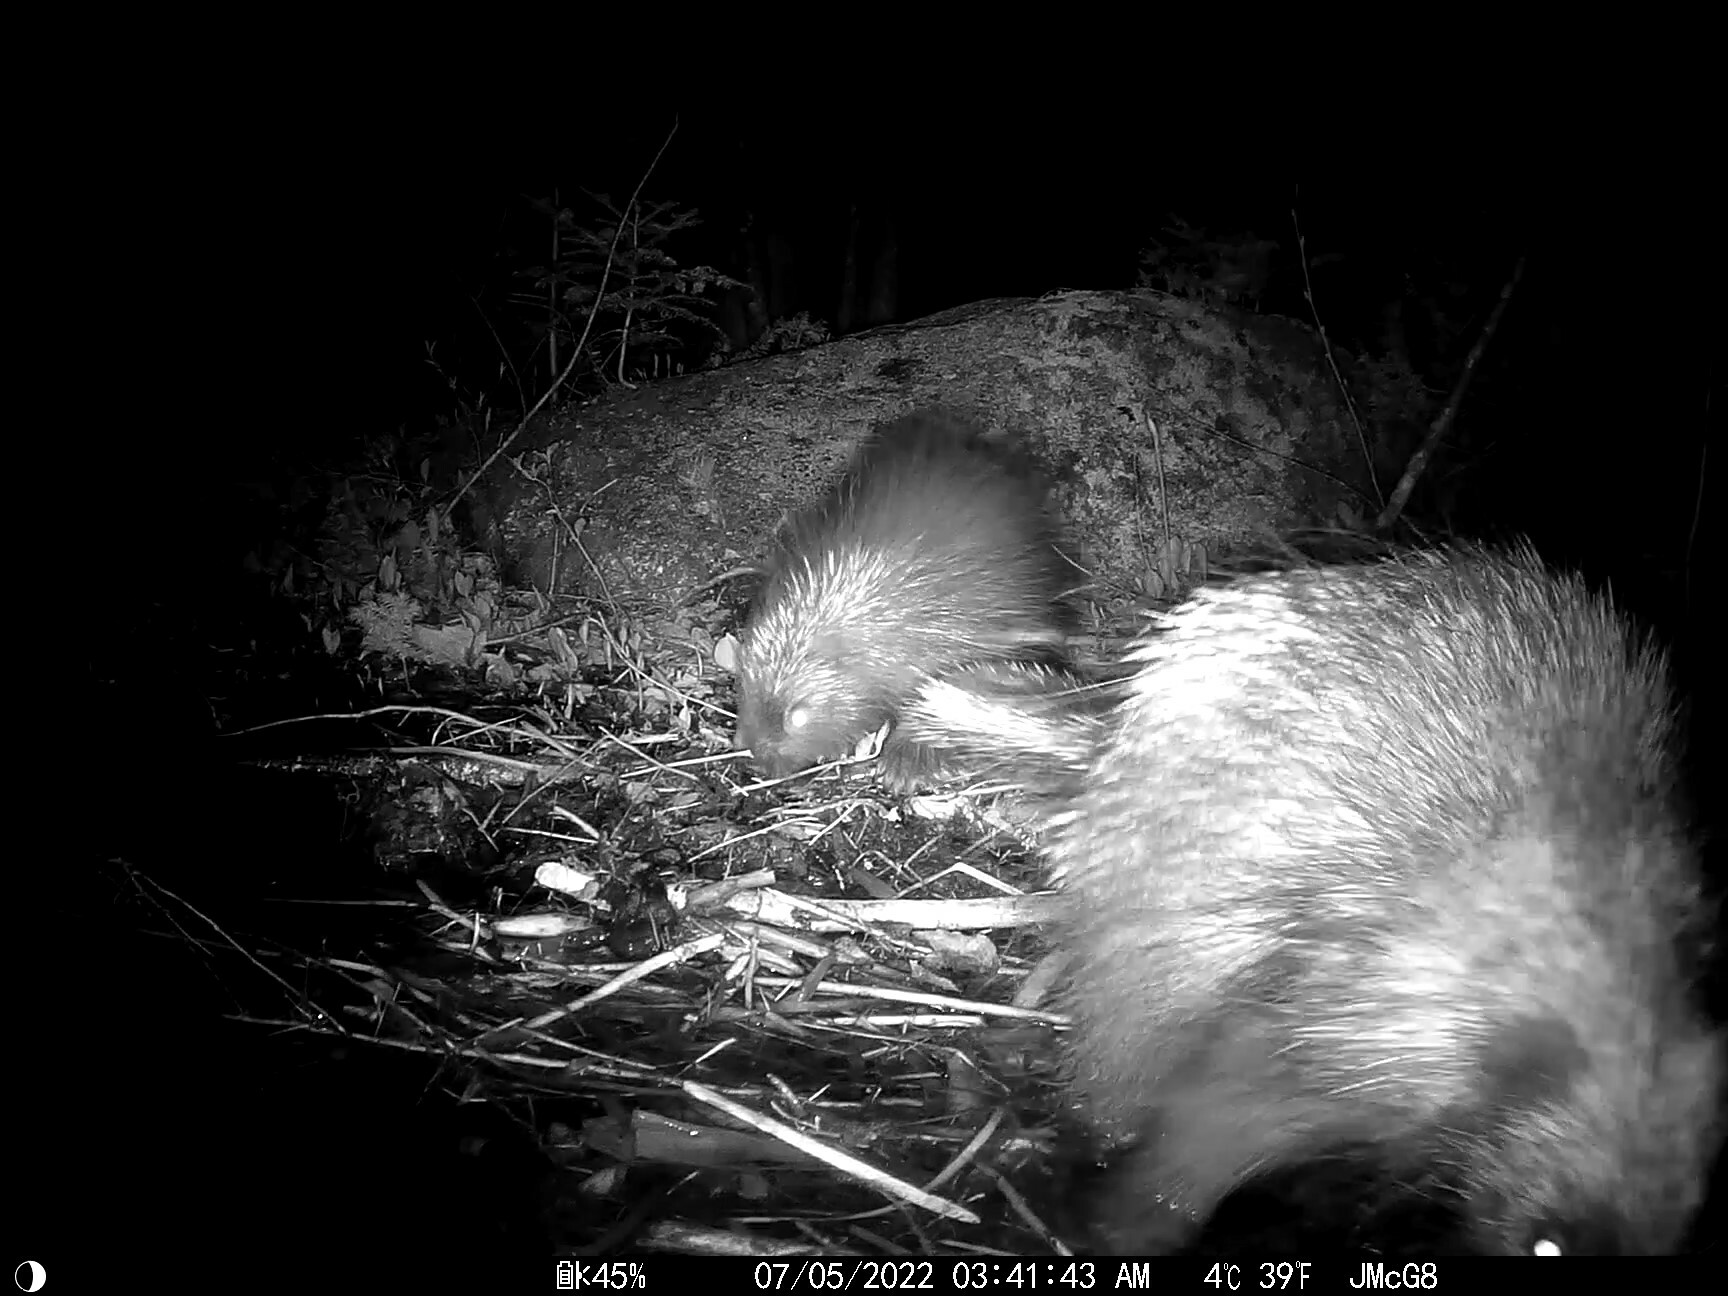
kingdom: Animalia
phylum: Chordata
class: Mammalia
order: Rodentia
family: Erethizontidae
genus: Erethizon
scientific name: Erethizon dorsatus
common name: North american porcupine
